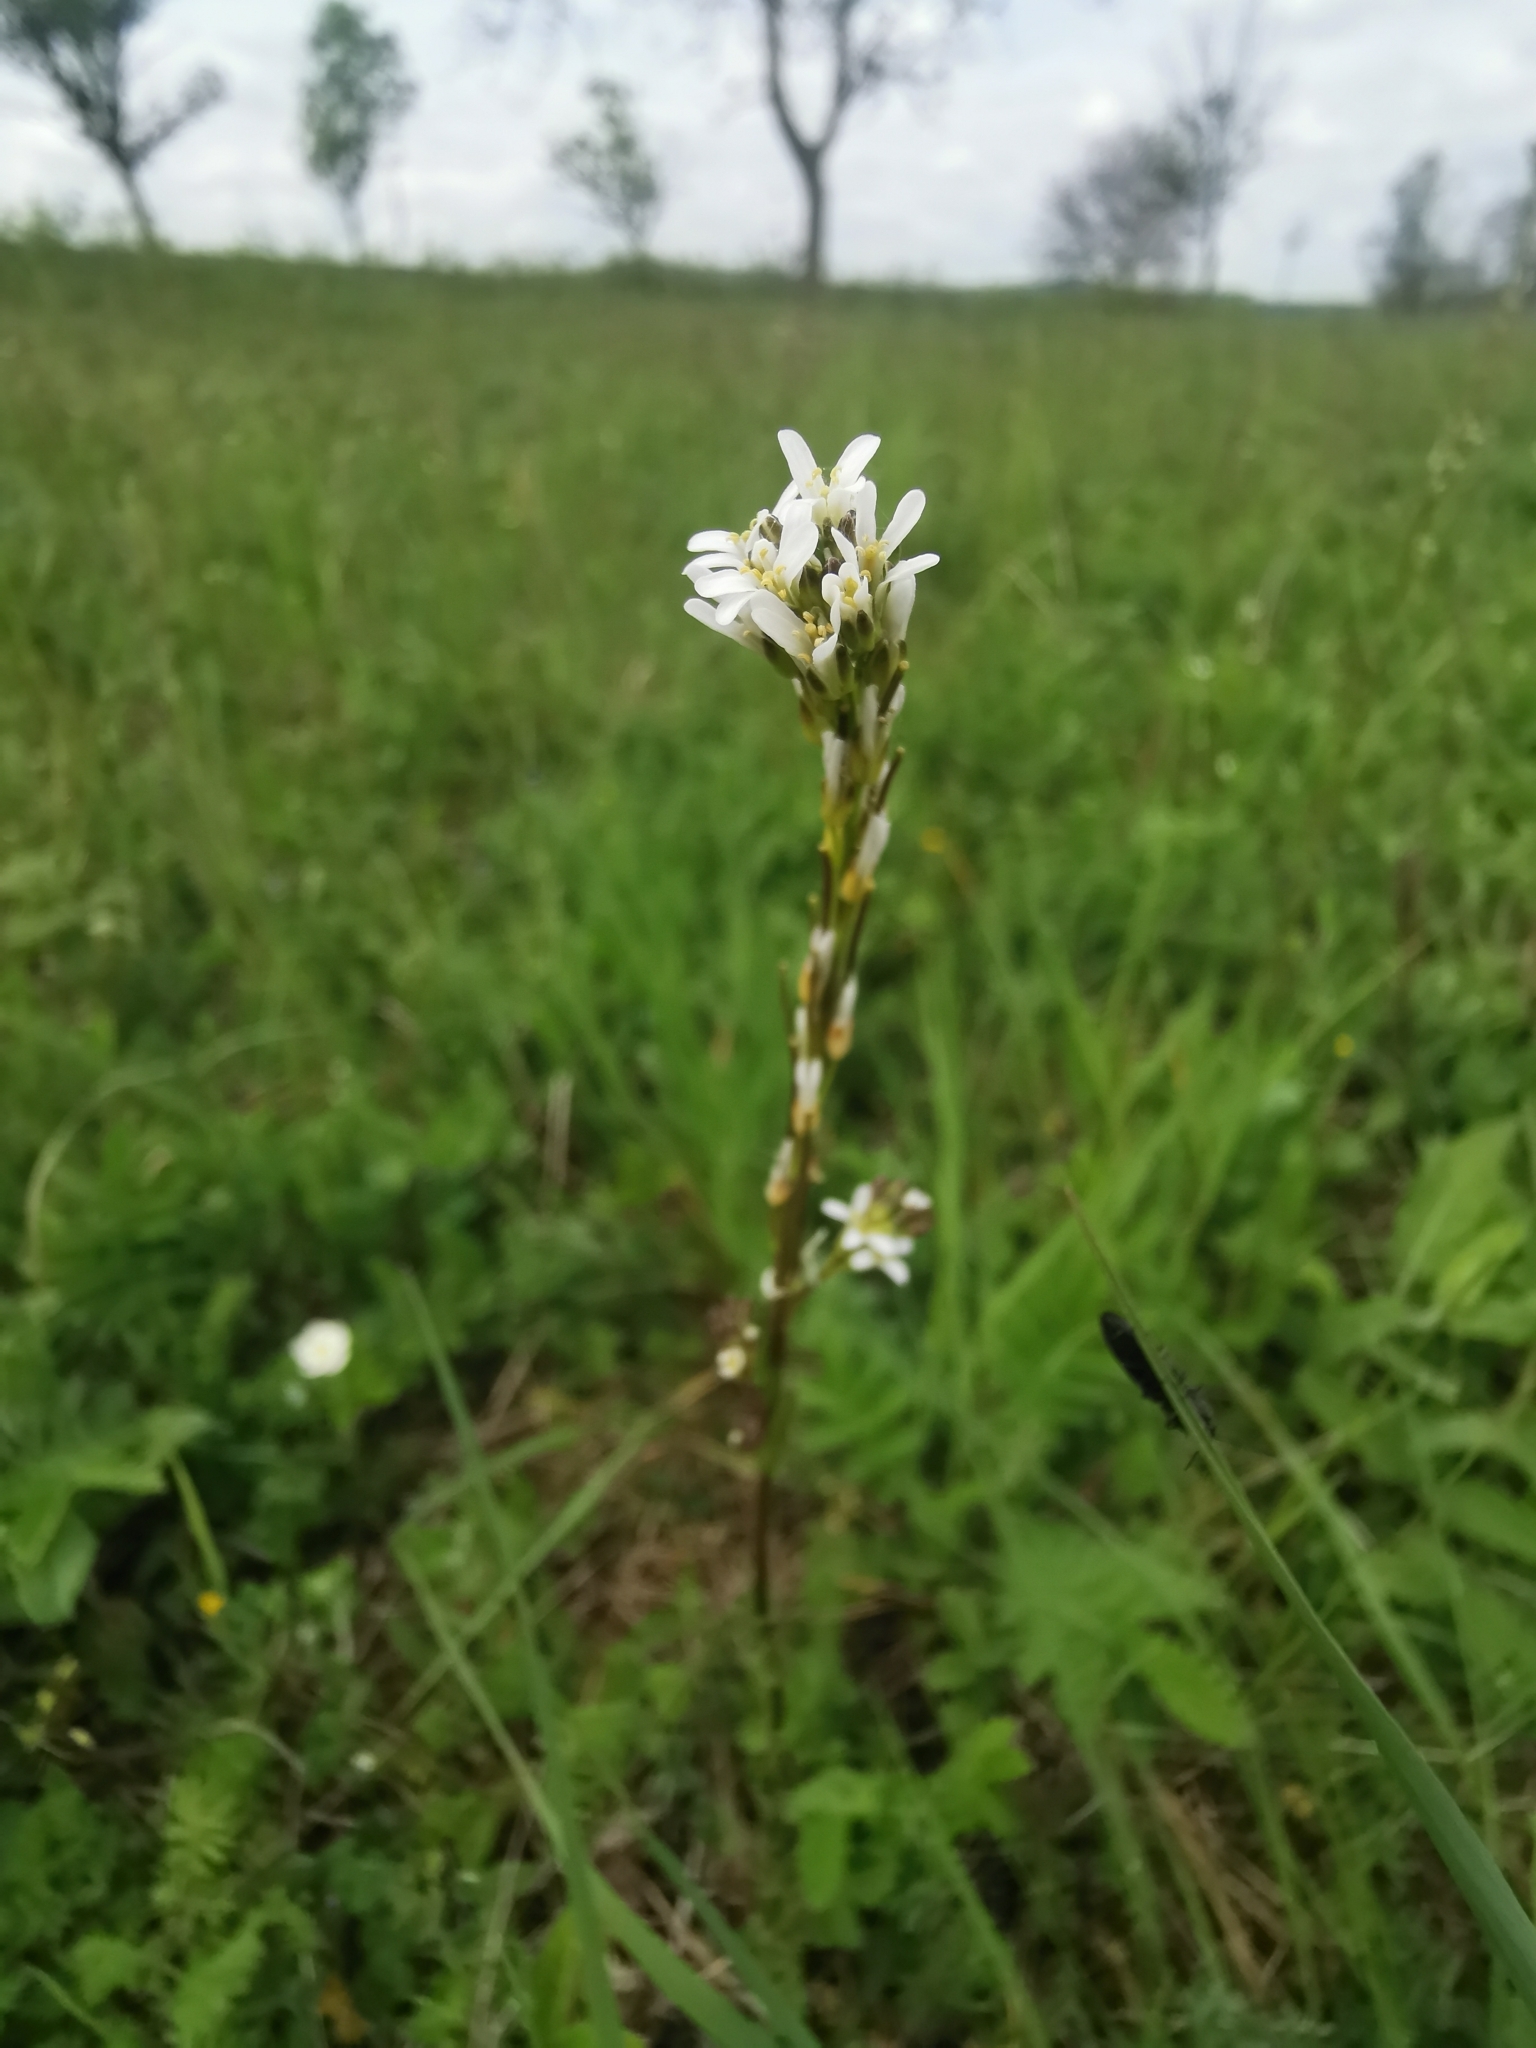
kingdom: Plantae
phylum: Tracheophyta
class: Magnoliopsida
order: Brassicales
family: Brassicaceae
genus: Arabis
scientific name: Arabis hirsuta
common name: Hairy rock-cress
